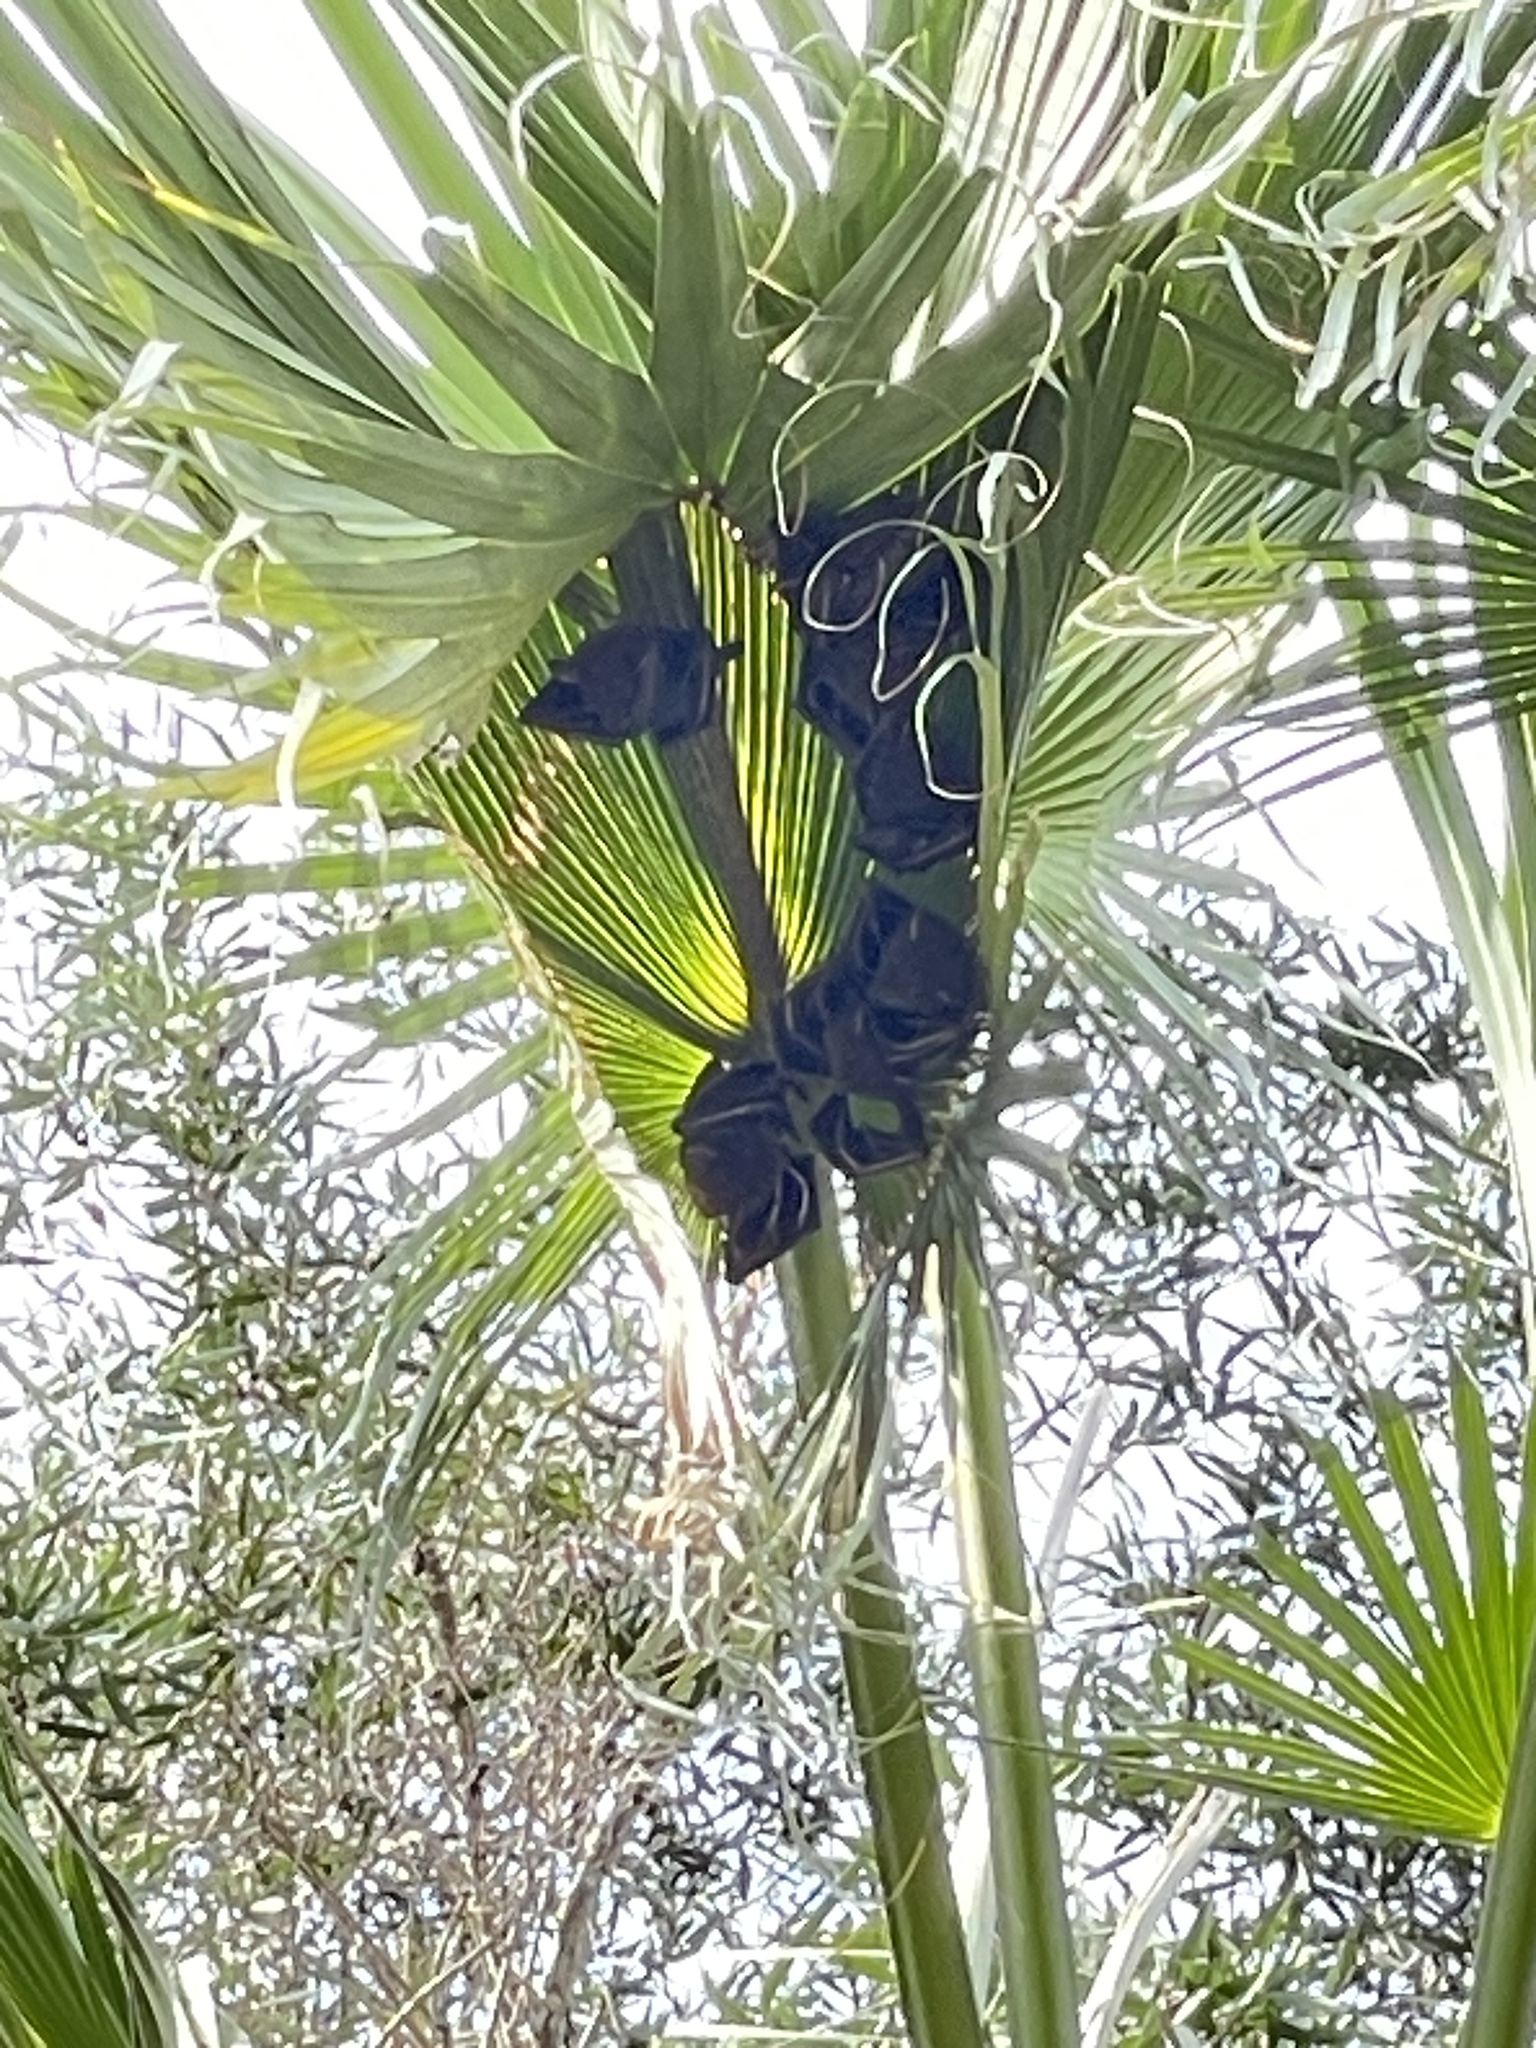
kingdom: Animalia
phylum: Chordata
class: Mammalia
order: Chiroptera
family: Pteropodidae
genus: Cynopterus
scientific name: Cynopterus sphinx
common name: Greater short-nosed fruit bat
